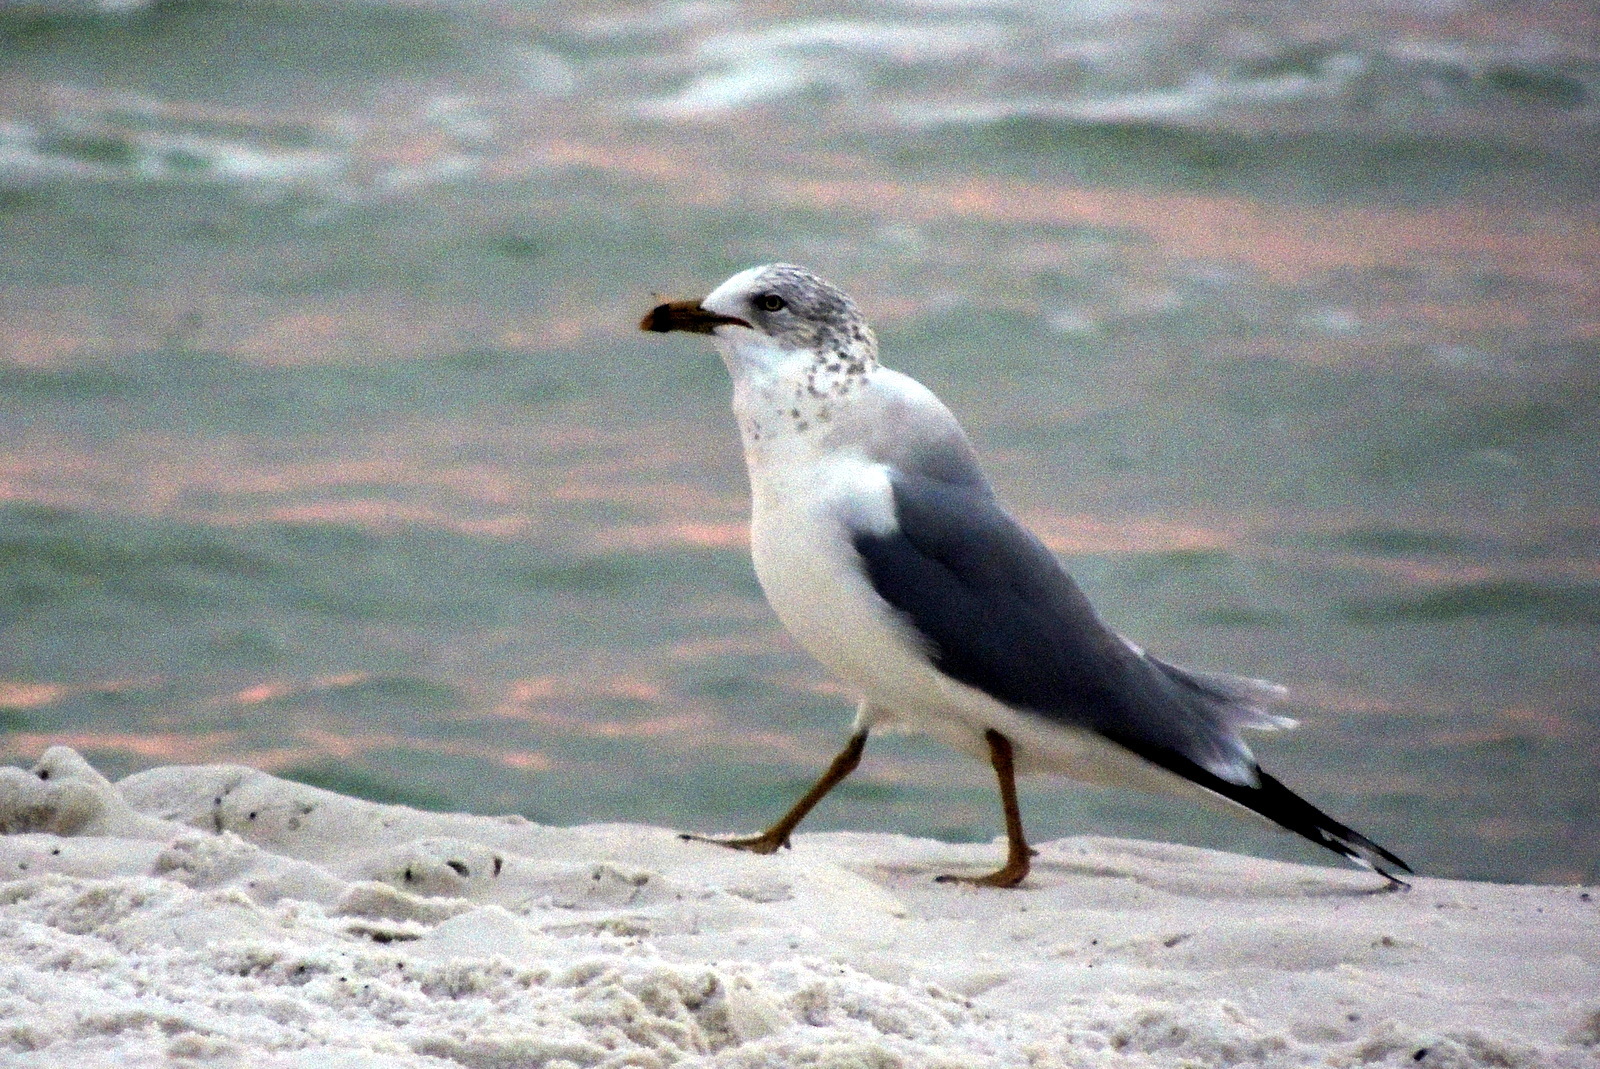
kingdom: Animalia
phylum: Chordata
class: Aves
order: Charadriiformes
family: Laridae
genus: Larus
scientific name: Larus delawarensis
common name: Ring-billed gull
